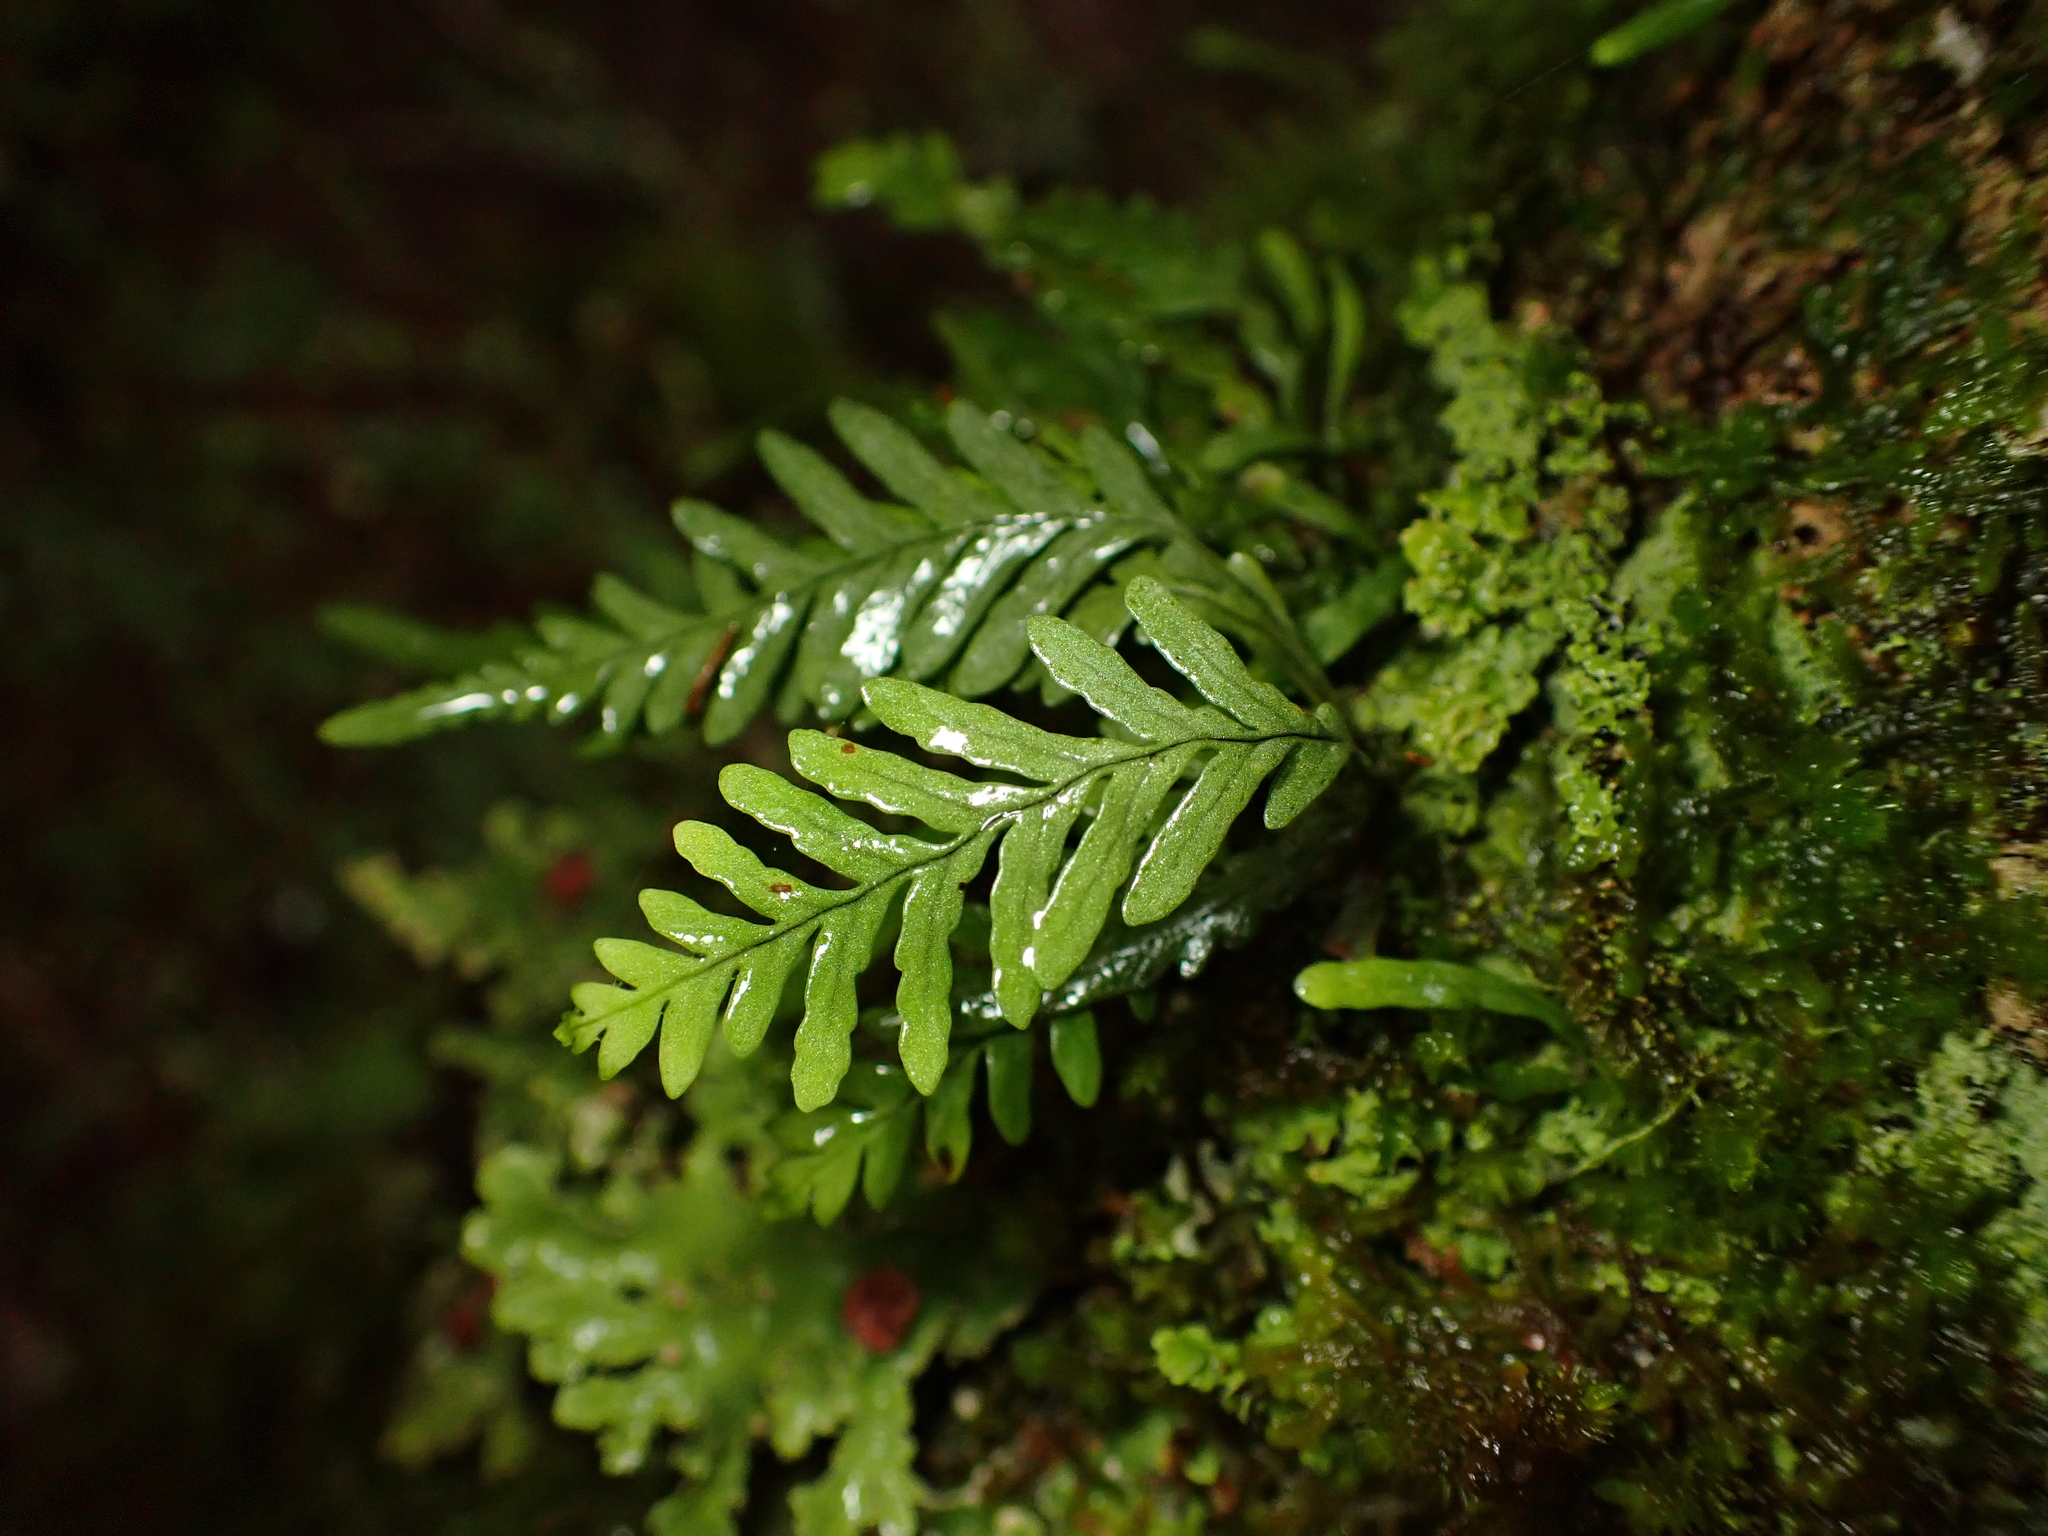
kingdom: Plantae
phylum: Tracheophyta
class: Polypodiopsida
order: Polypodiales
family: Polypodiaceae
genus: Notogrammitis
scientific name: Notogrammitis heterophylla
